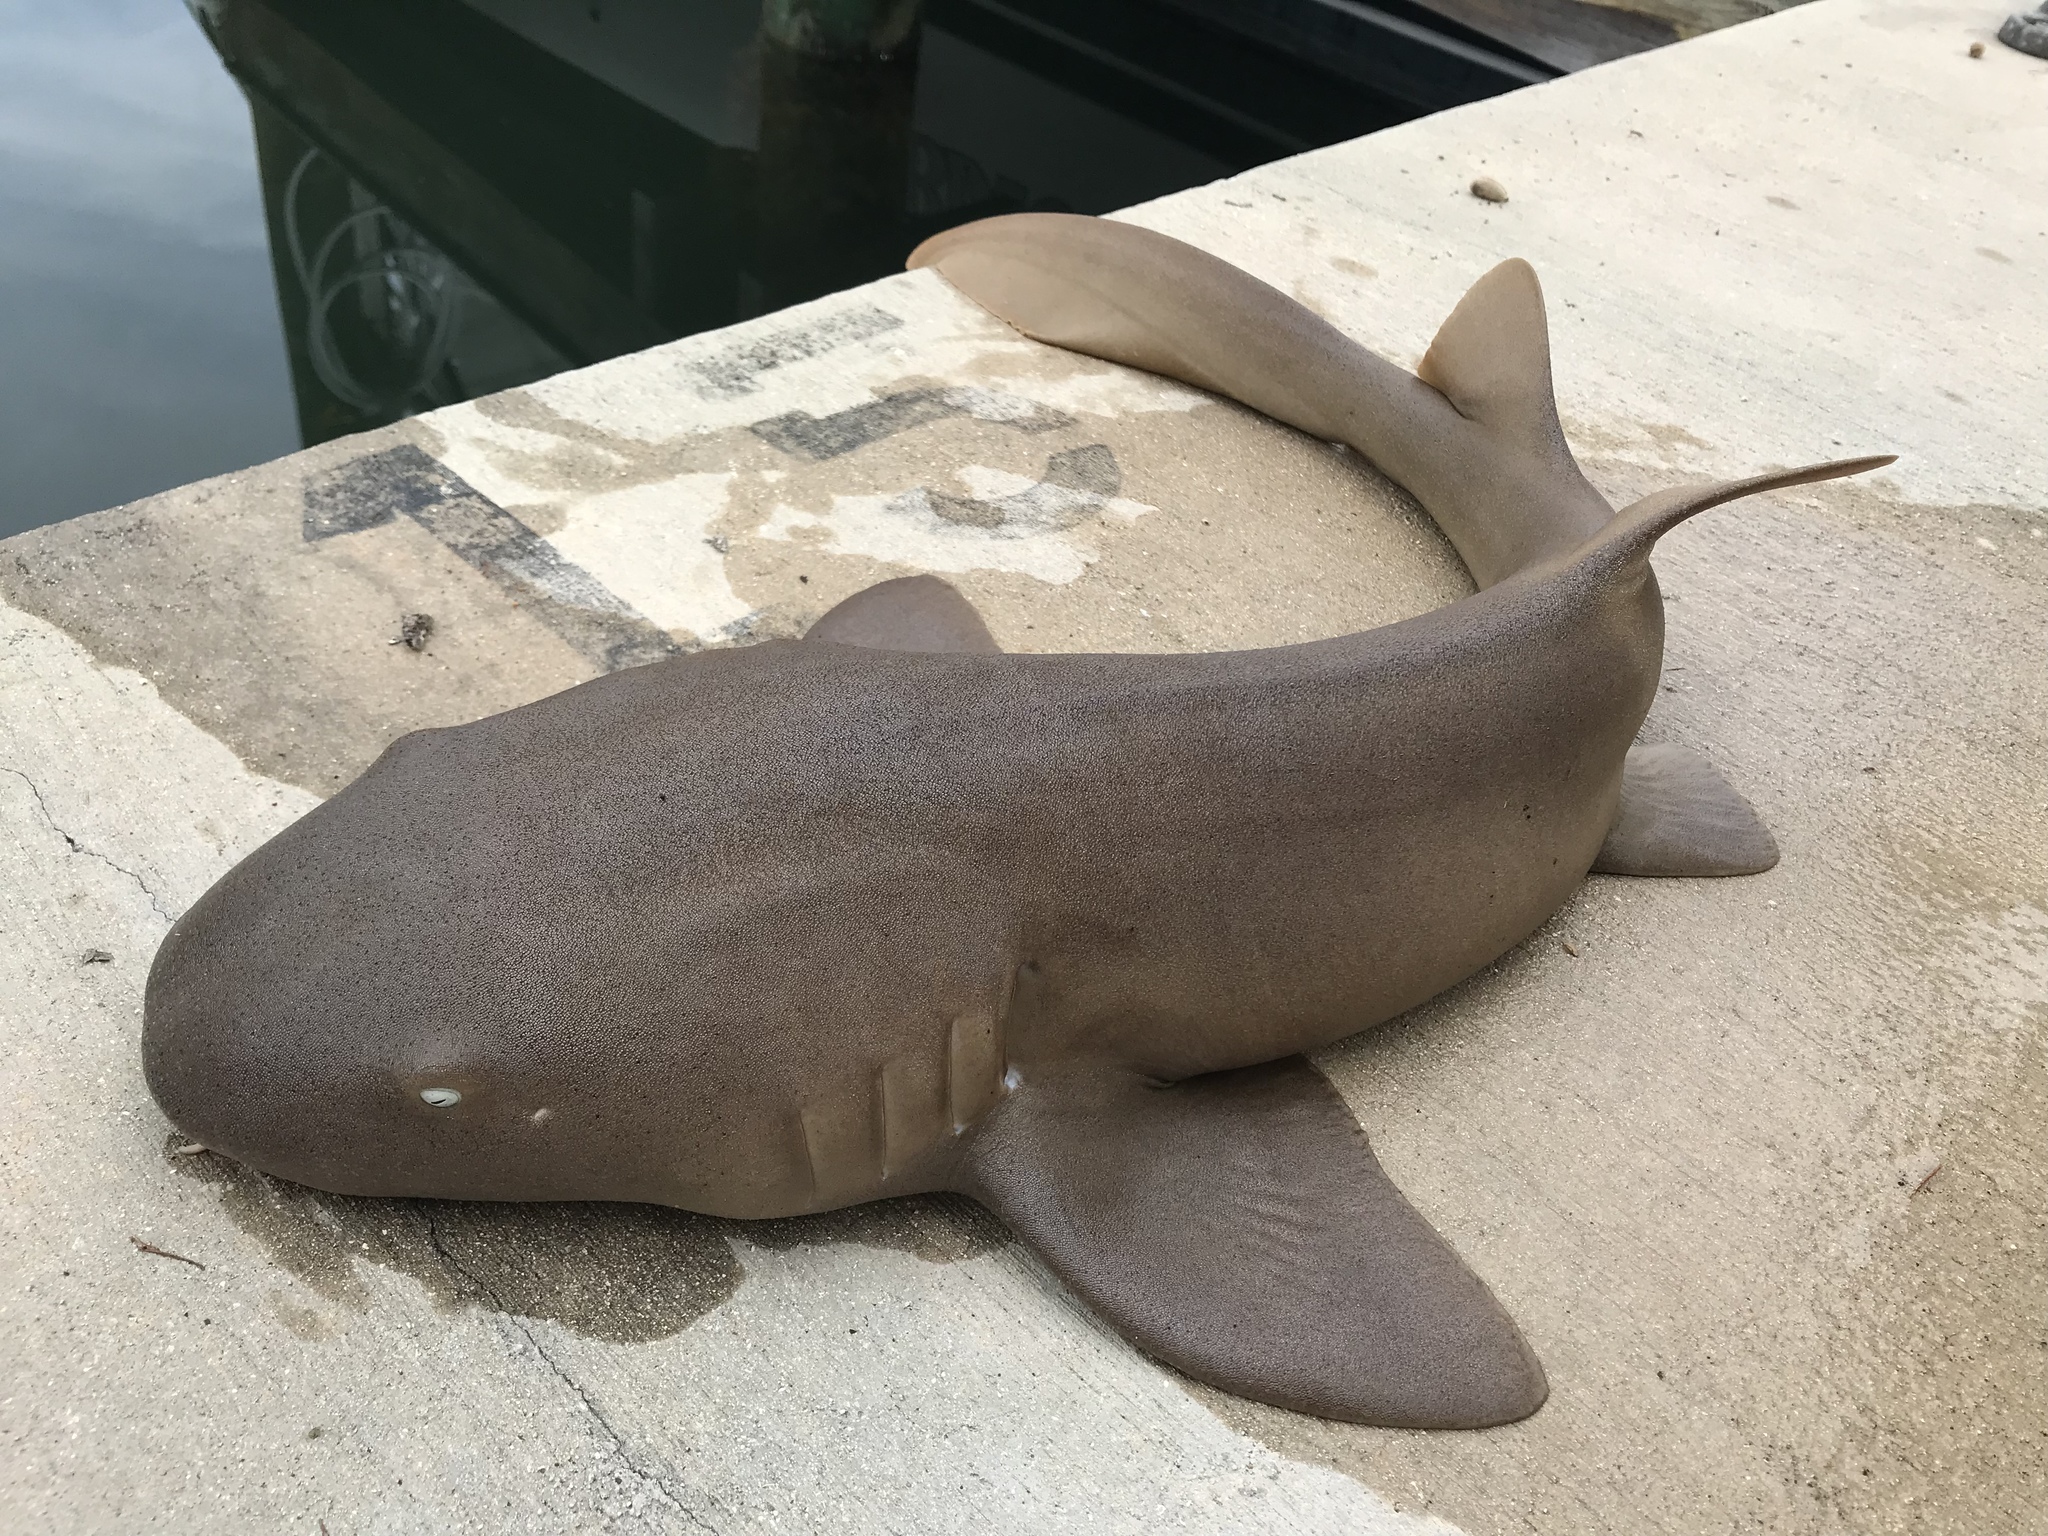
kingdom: Animalia
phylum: Chordata
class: Elasmobranchii
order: Orectolobiformes
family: Ginglymostomatidae
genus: Ginglymostoma
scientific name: Ginglymostoma cirratum
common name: Nurse shark
